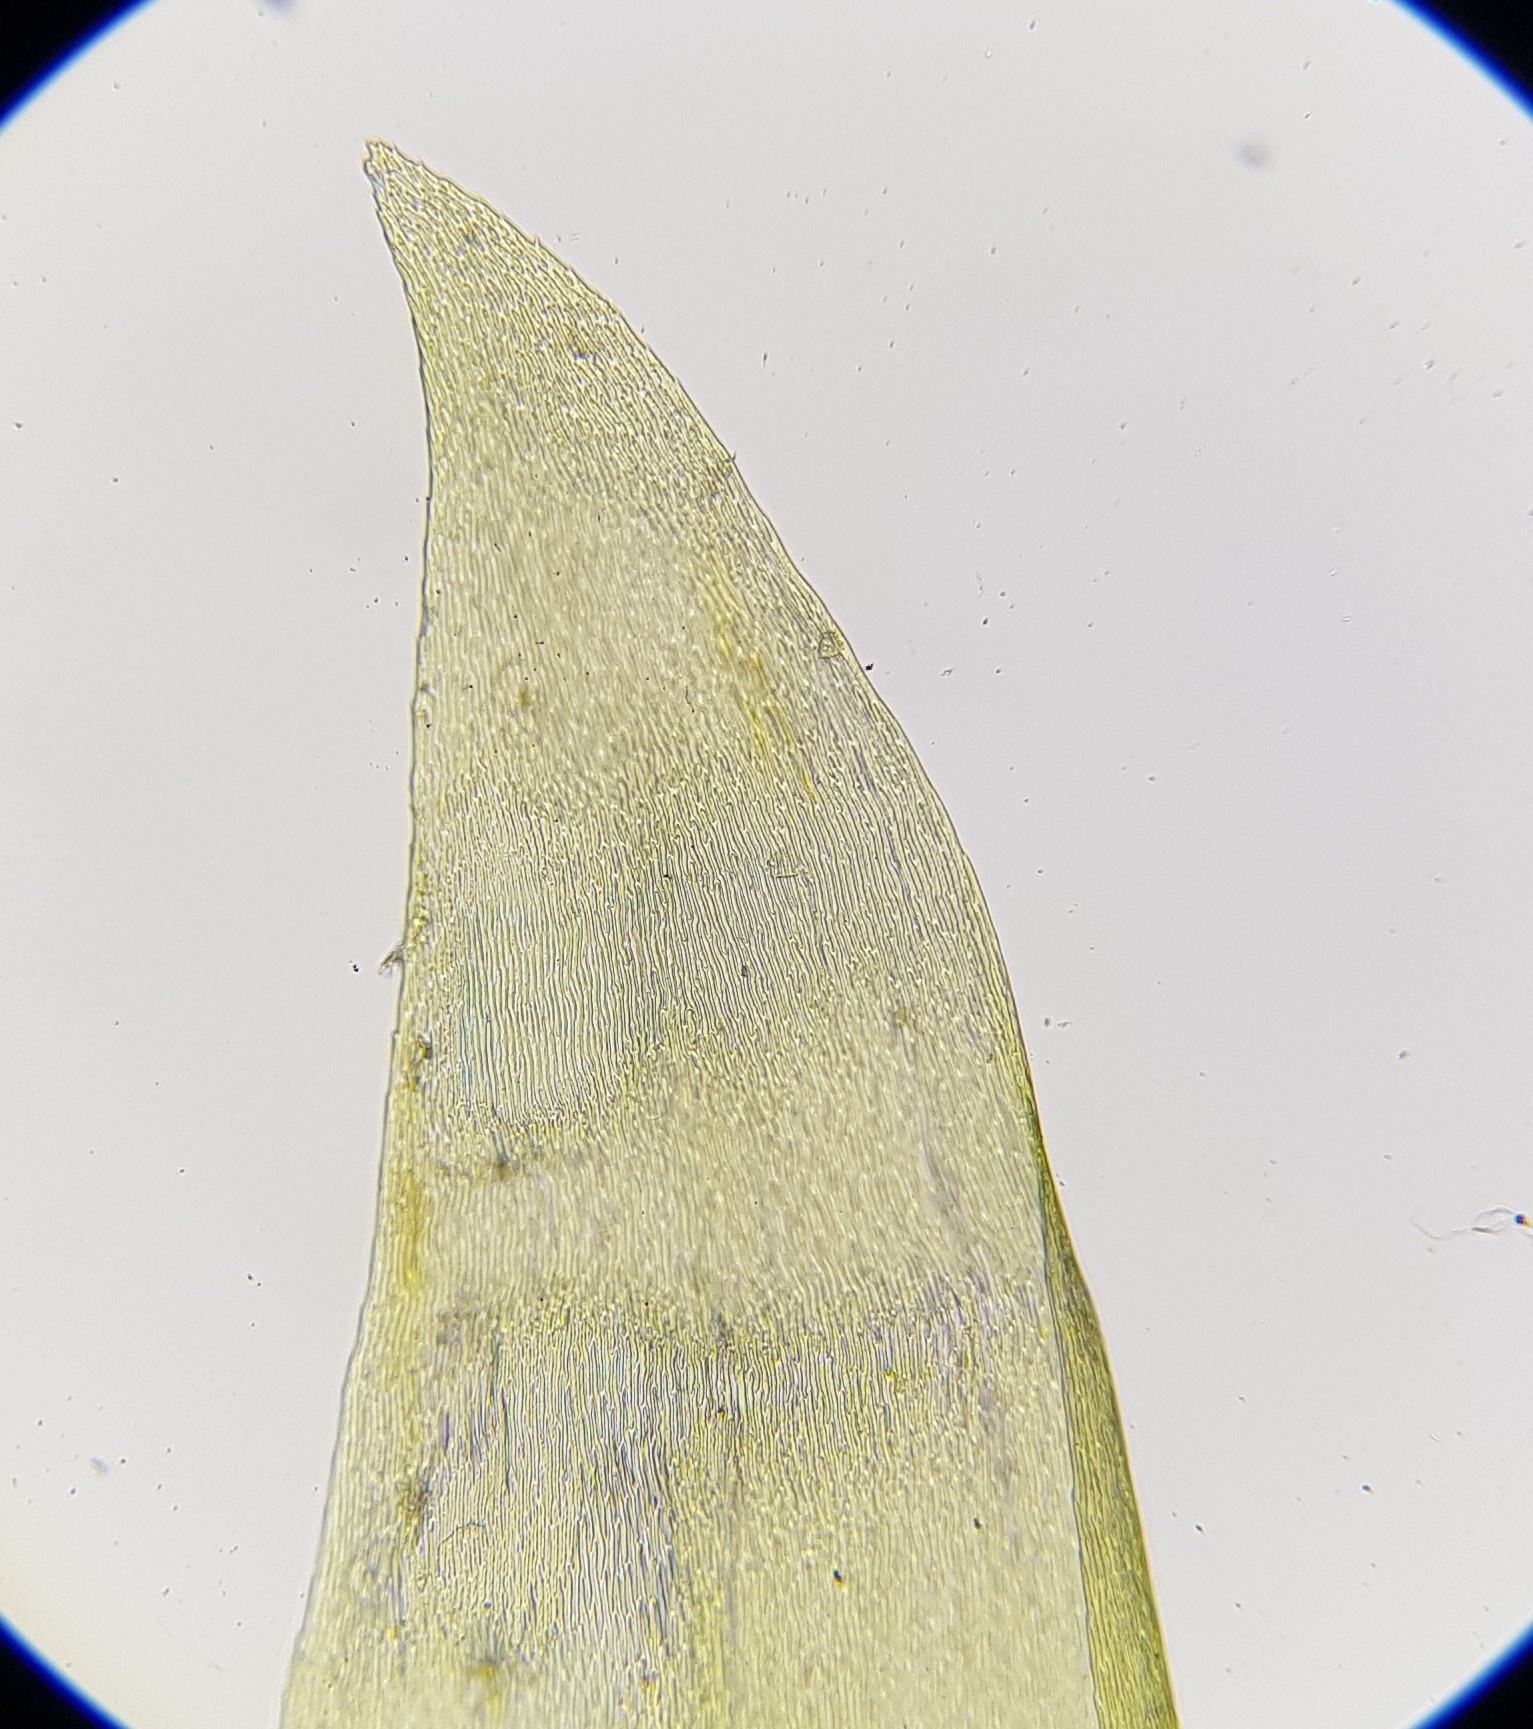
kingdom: Plantae
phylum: Bryophyta
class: Bryopsida
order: Hypnales
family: Pylaisiaceae
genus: Calliergonella
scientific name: Calliergonella lindbergii
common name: Lindberg's plait-moss
